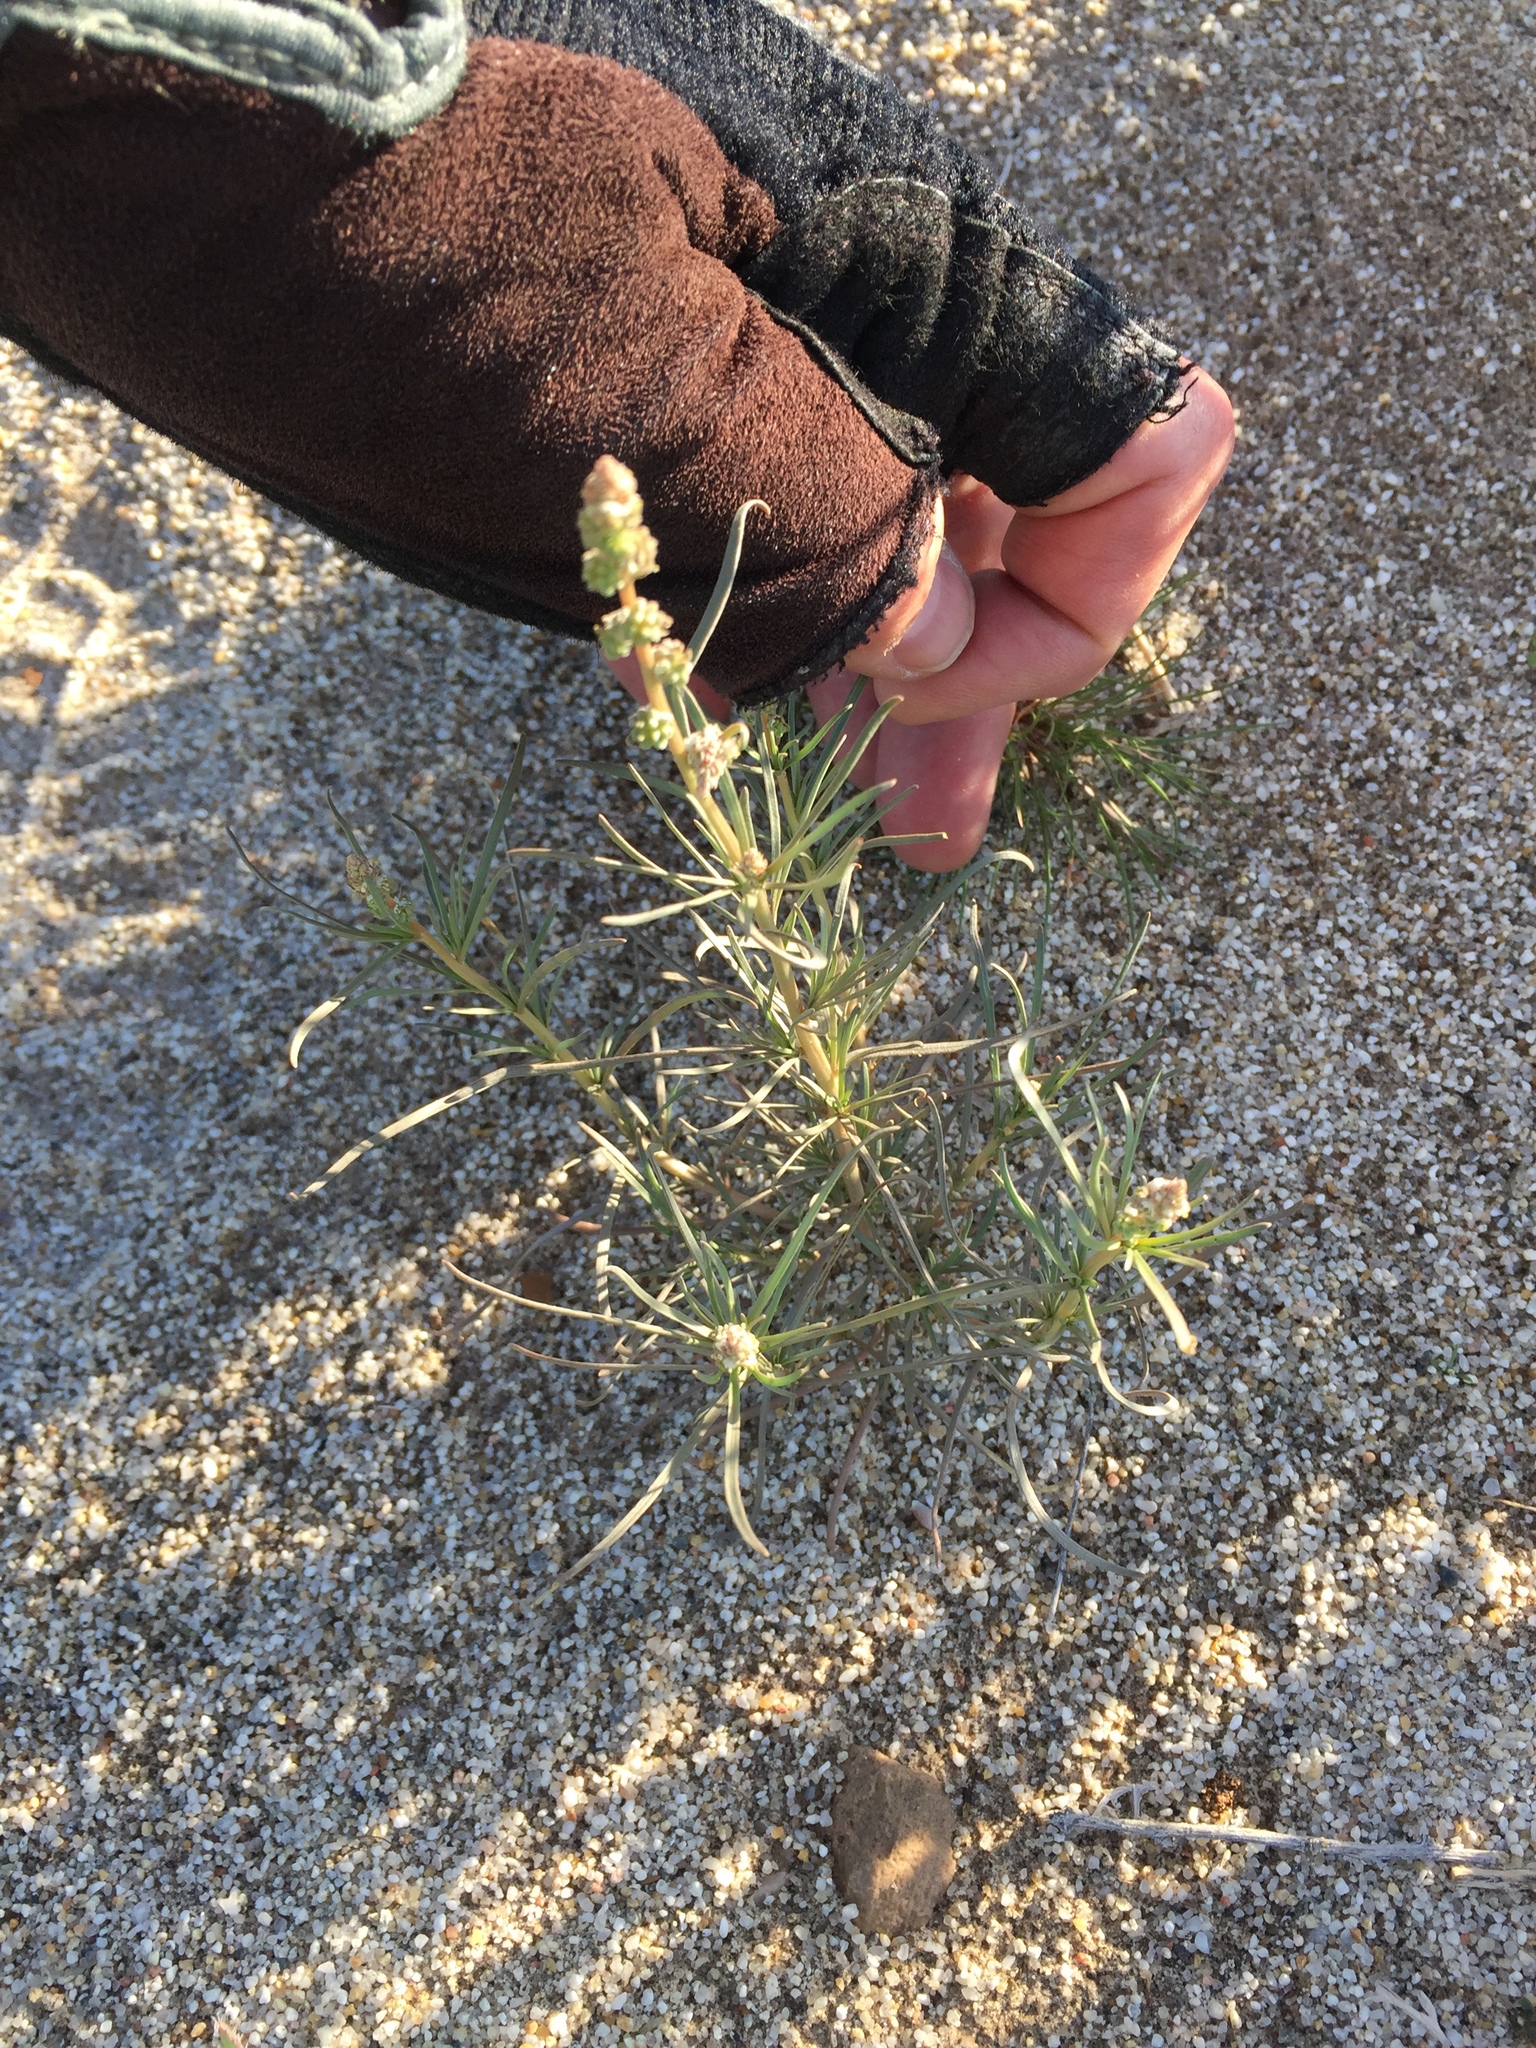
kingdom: Plantae
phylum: Tracheophyta
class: Magnoliopsida
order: Brassicales
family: Resedaceae
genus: Oligomeris
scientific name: Oligomeris linifolia
